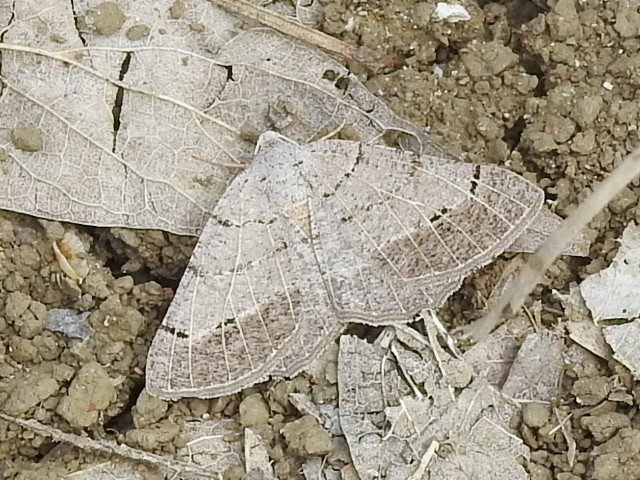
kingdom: Animalia
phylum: Arthropoda
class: Insecta
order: Lepidoptera
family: Geometridae
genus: Isturgia
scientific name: Isturgia dislocaria
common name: Pale-viened enconista
